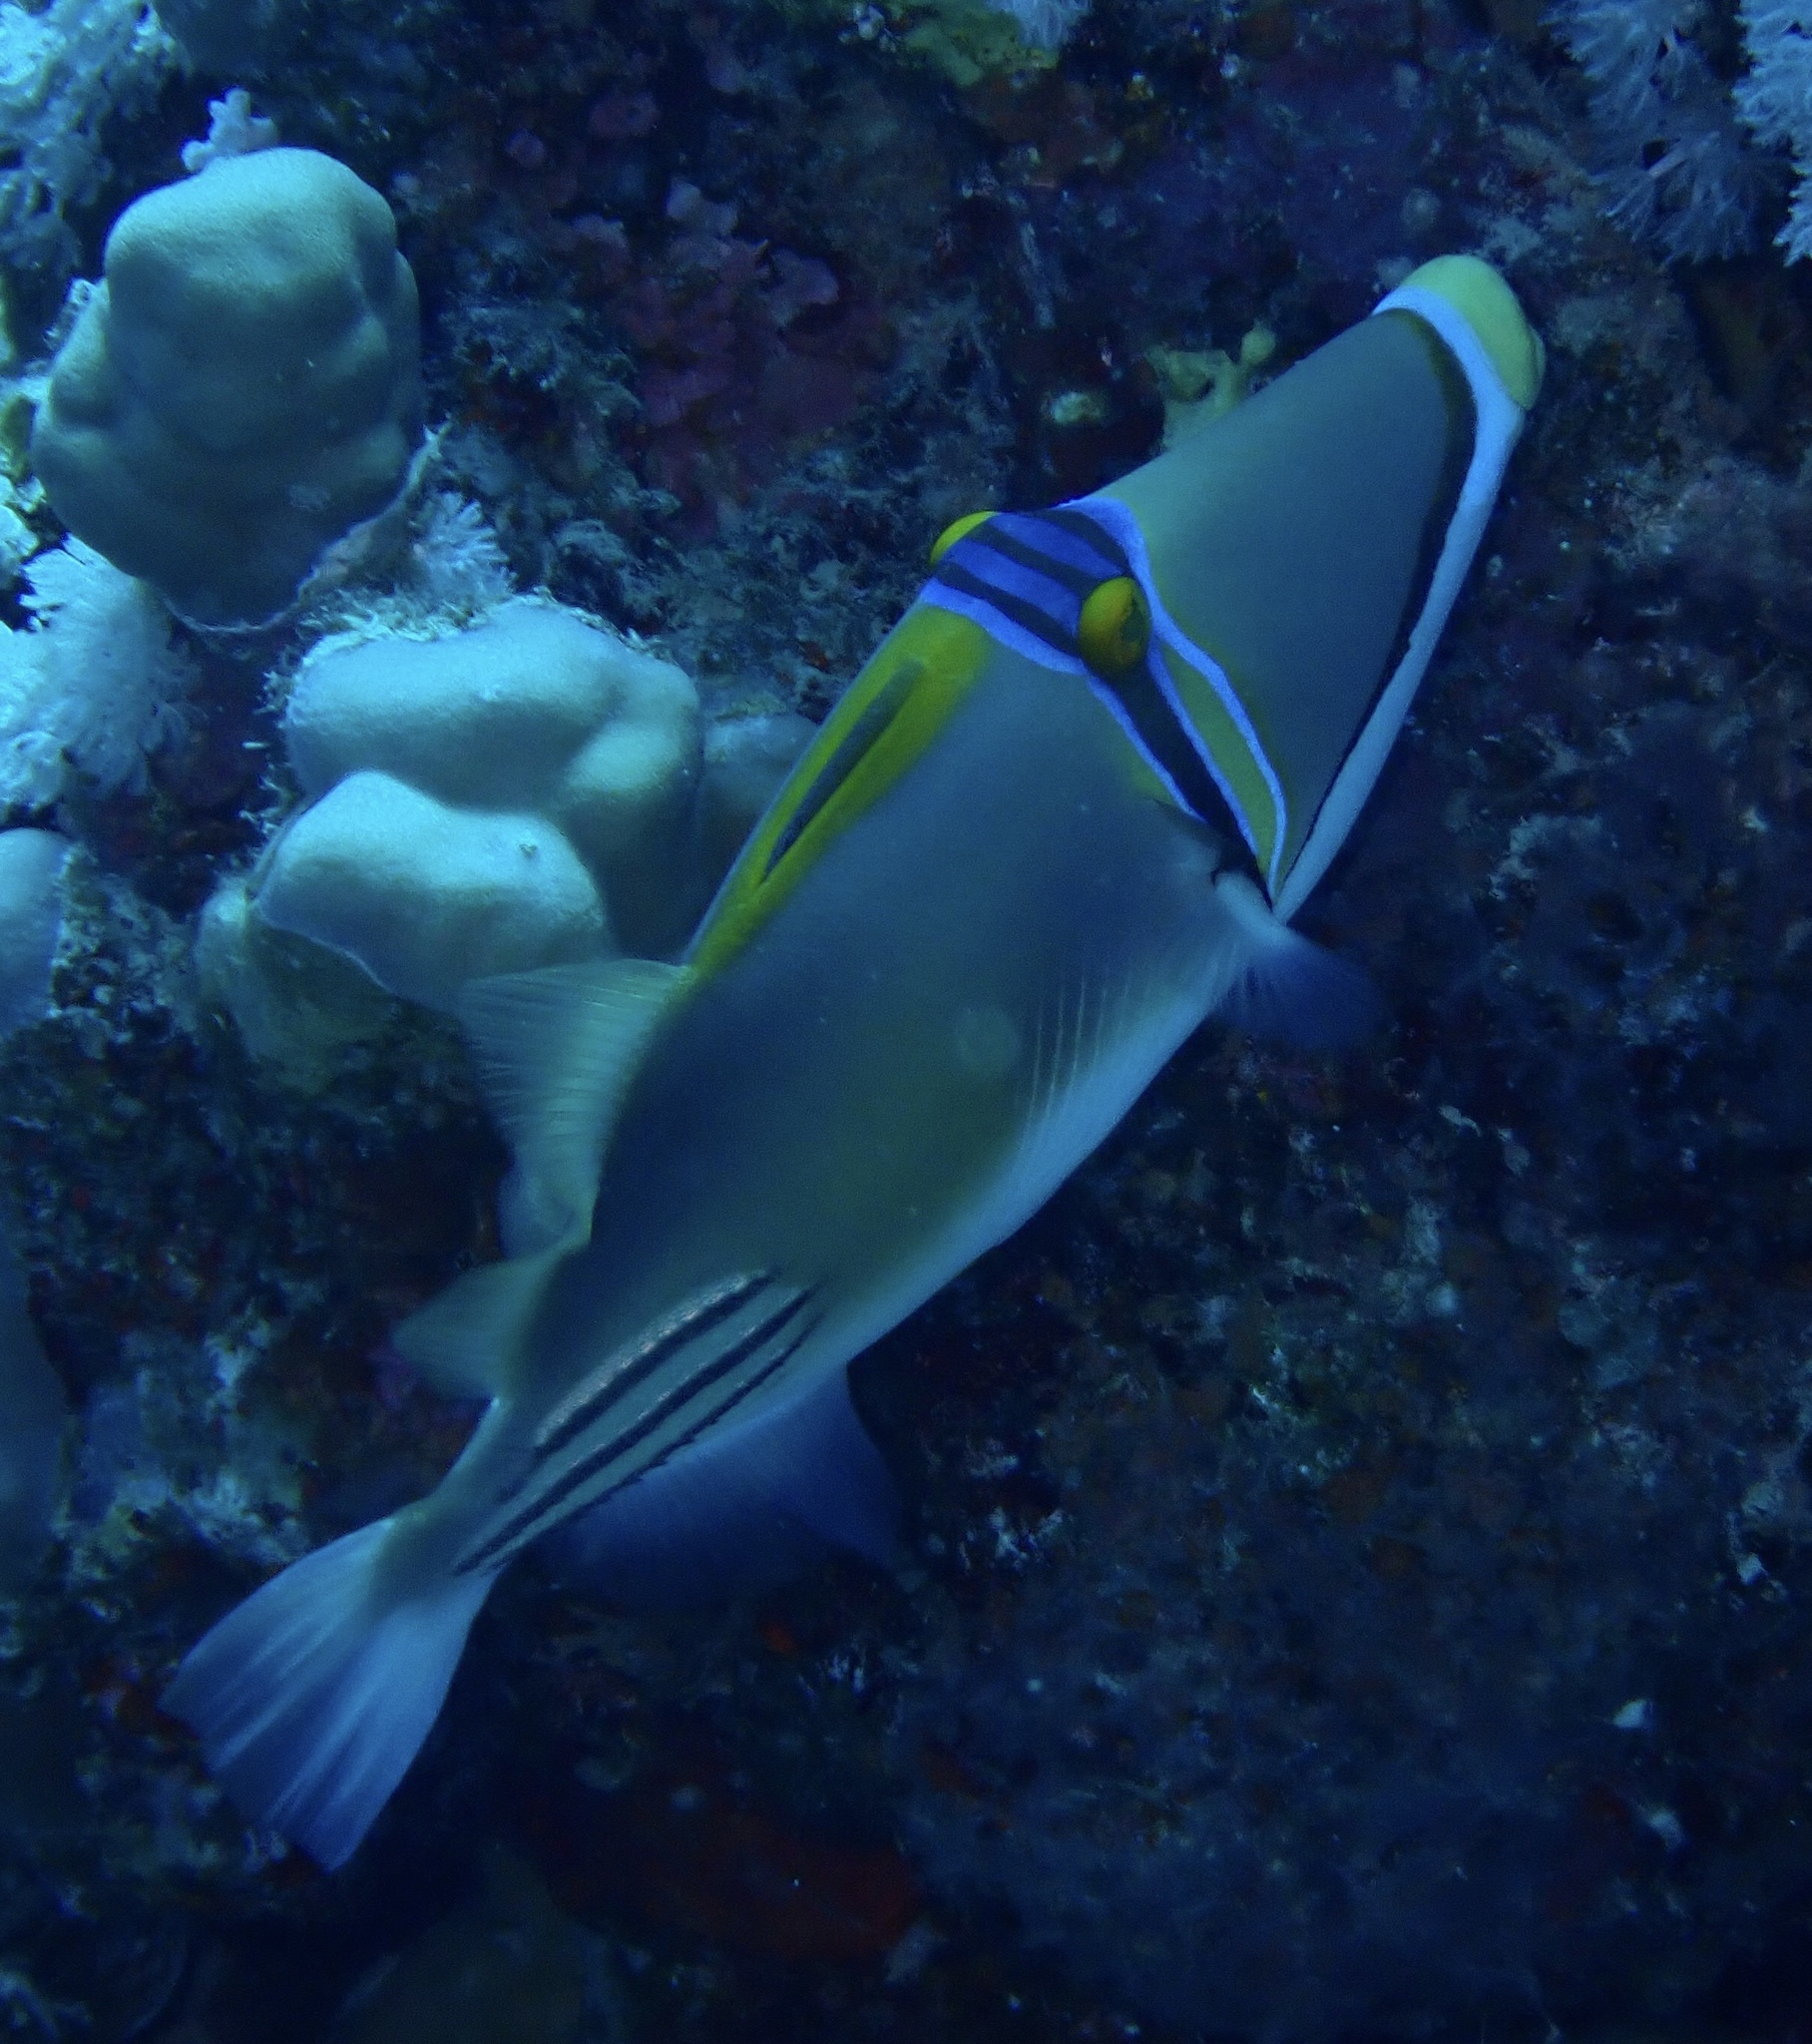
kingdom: Animalia
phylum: Chordata
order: Tetraodontiformes
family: Balistidae
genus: Rhinecanthus
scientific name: Rhinecanthus assasi
